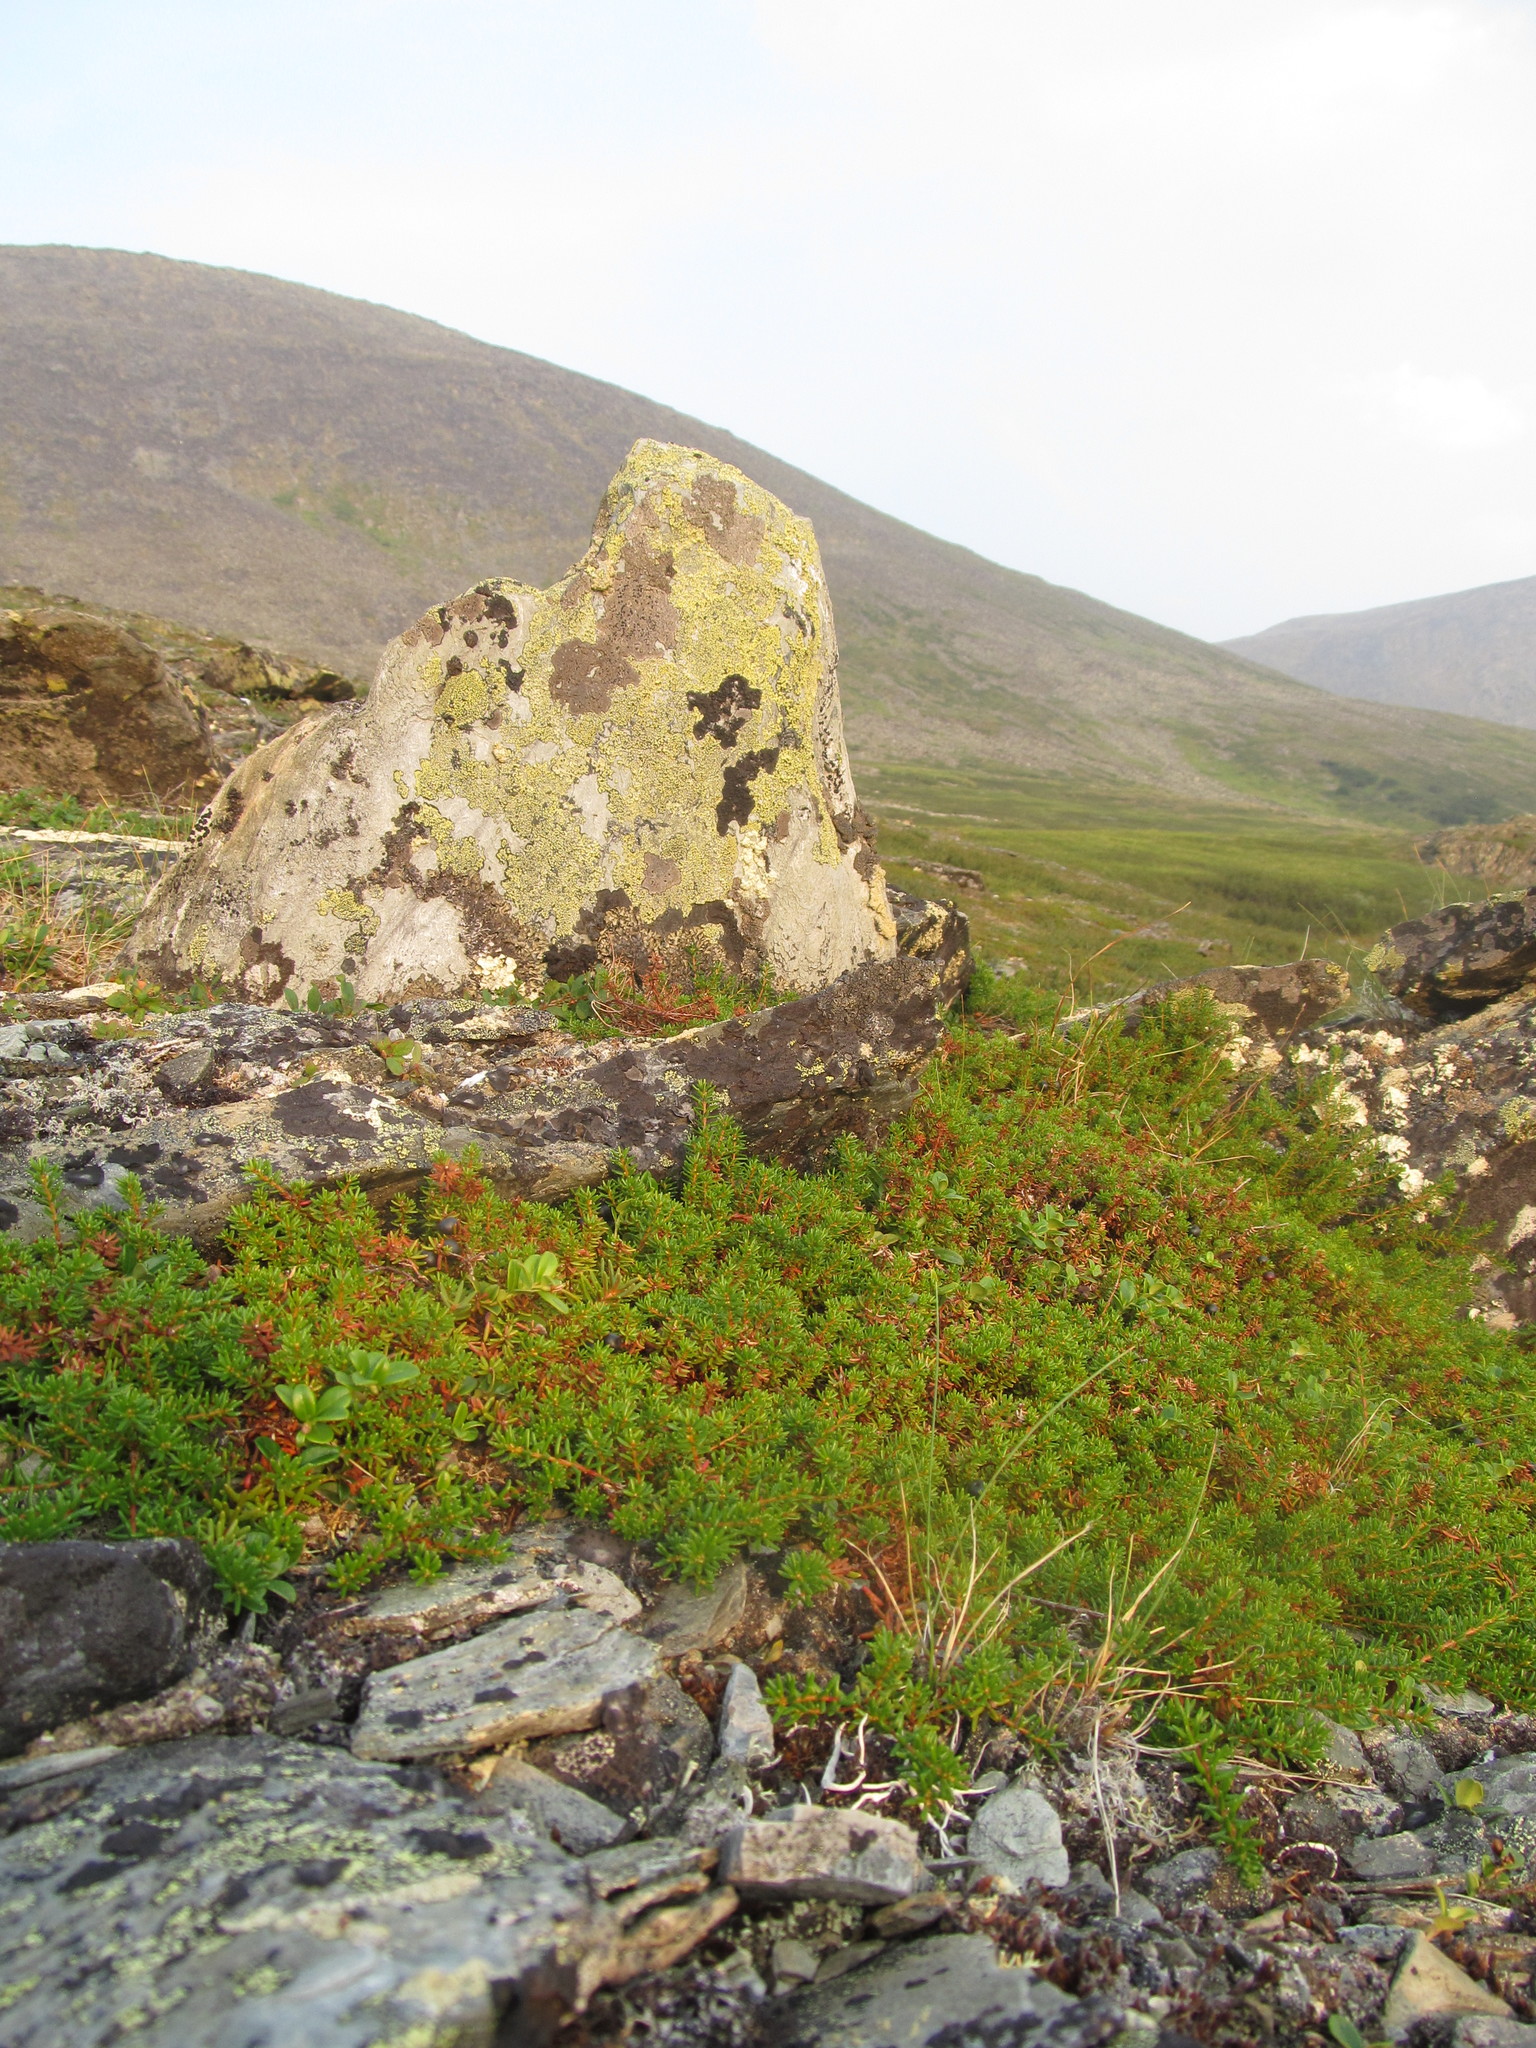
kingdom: Plantae
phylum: Tracheophyta
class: Magnoliopsida
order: Ericales
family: Ericaceae
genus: Empetrum
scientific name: Empetrum nigrum
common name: Black crowberry
